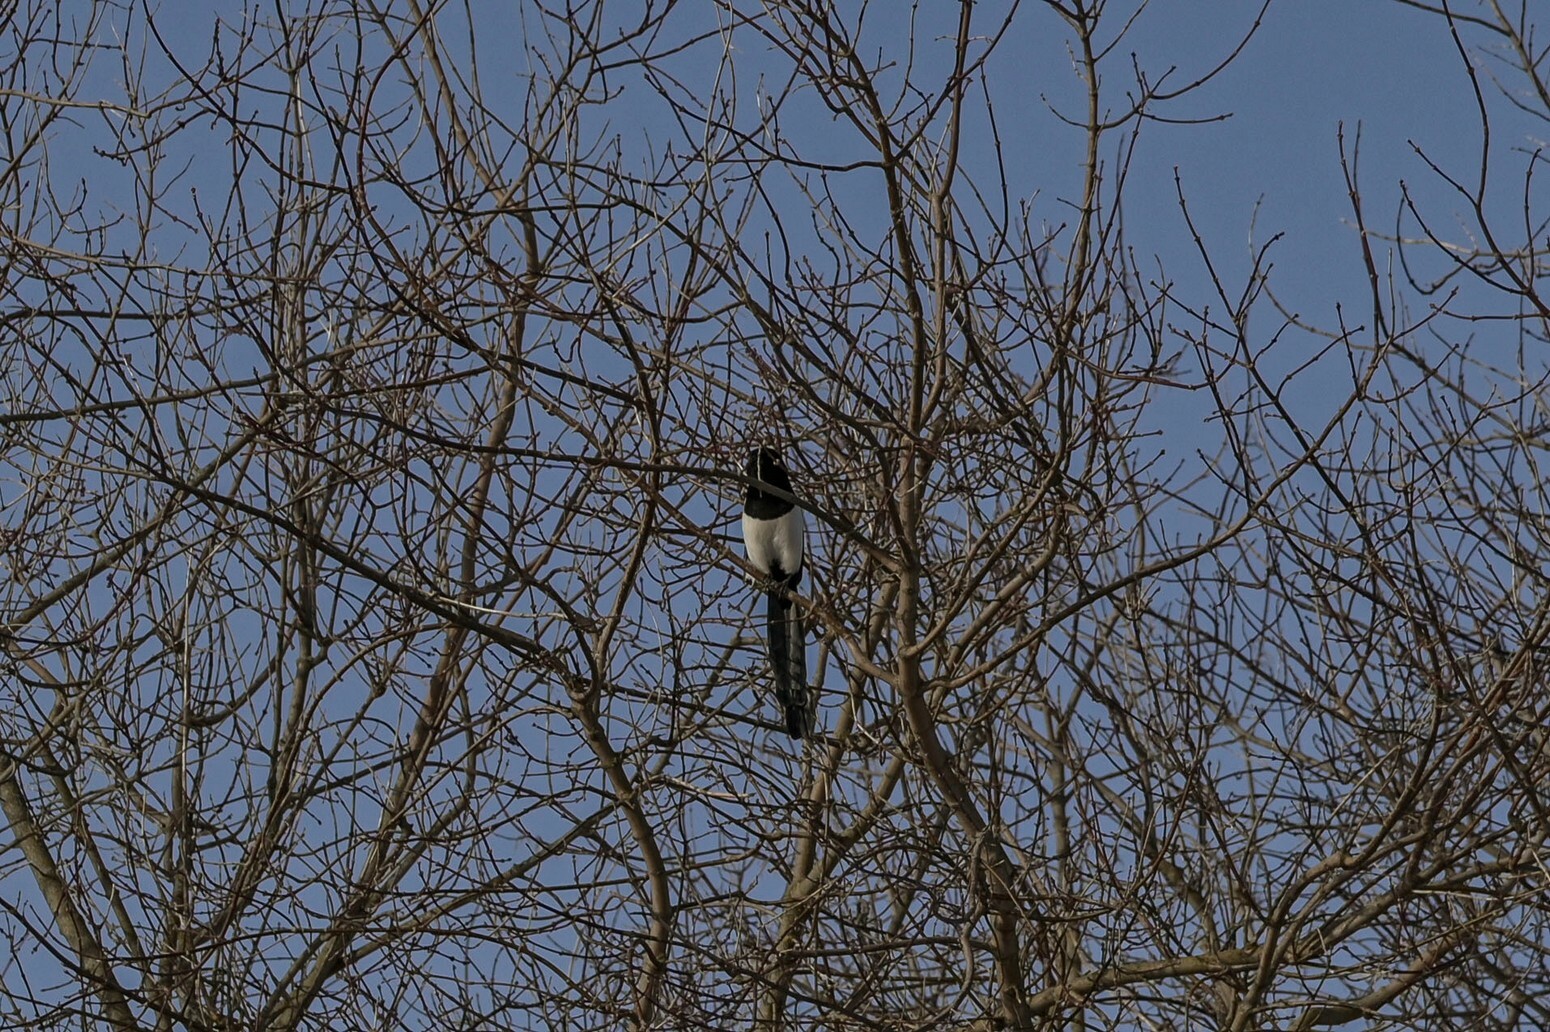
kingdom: Animalia
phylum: Chordata
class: Aves
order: Passeriformes
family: Corvidae
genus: Pica
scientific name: Pica pica
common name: Eurasian magpie
